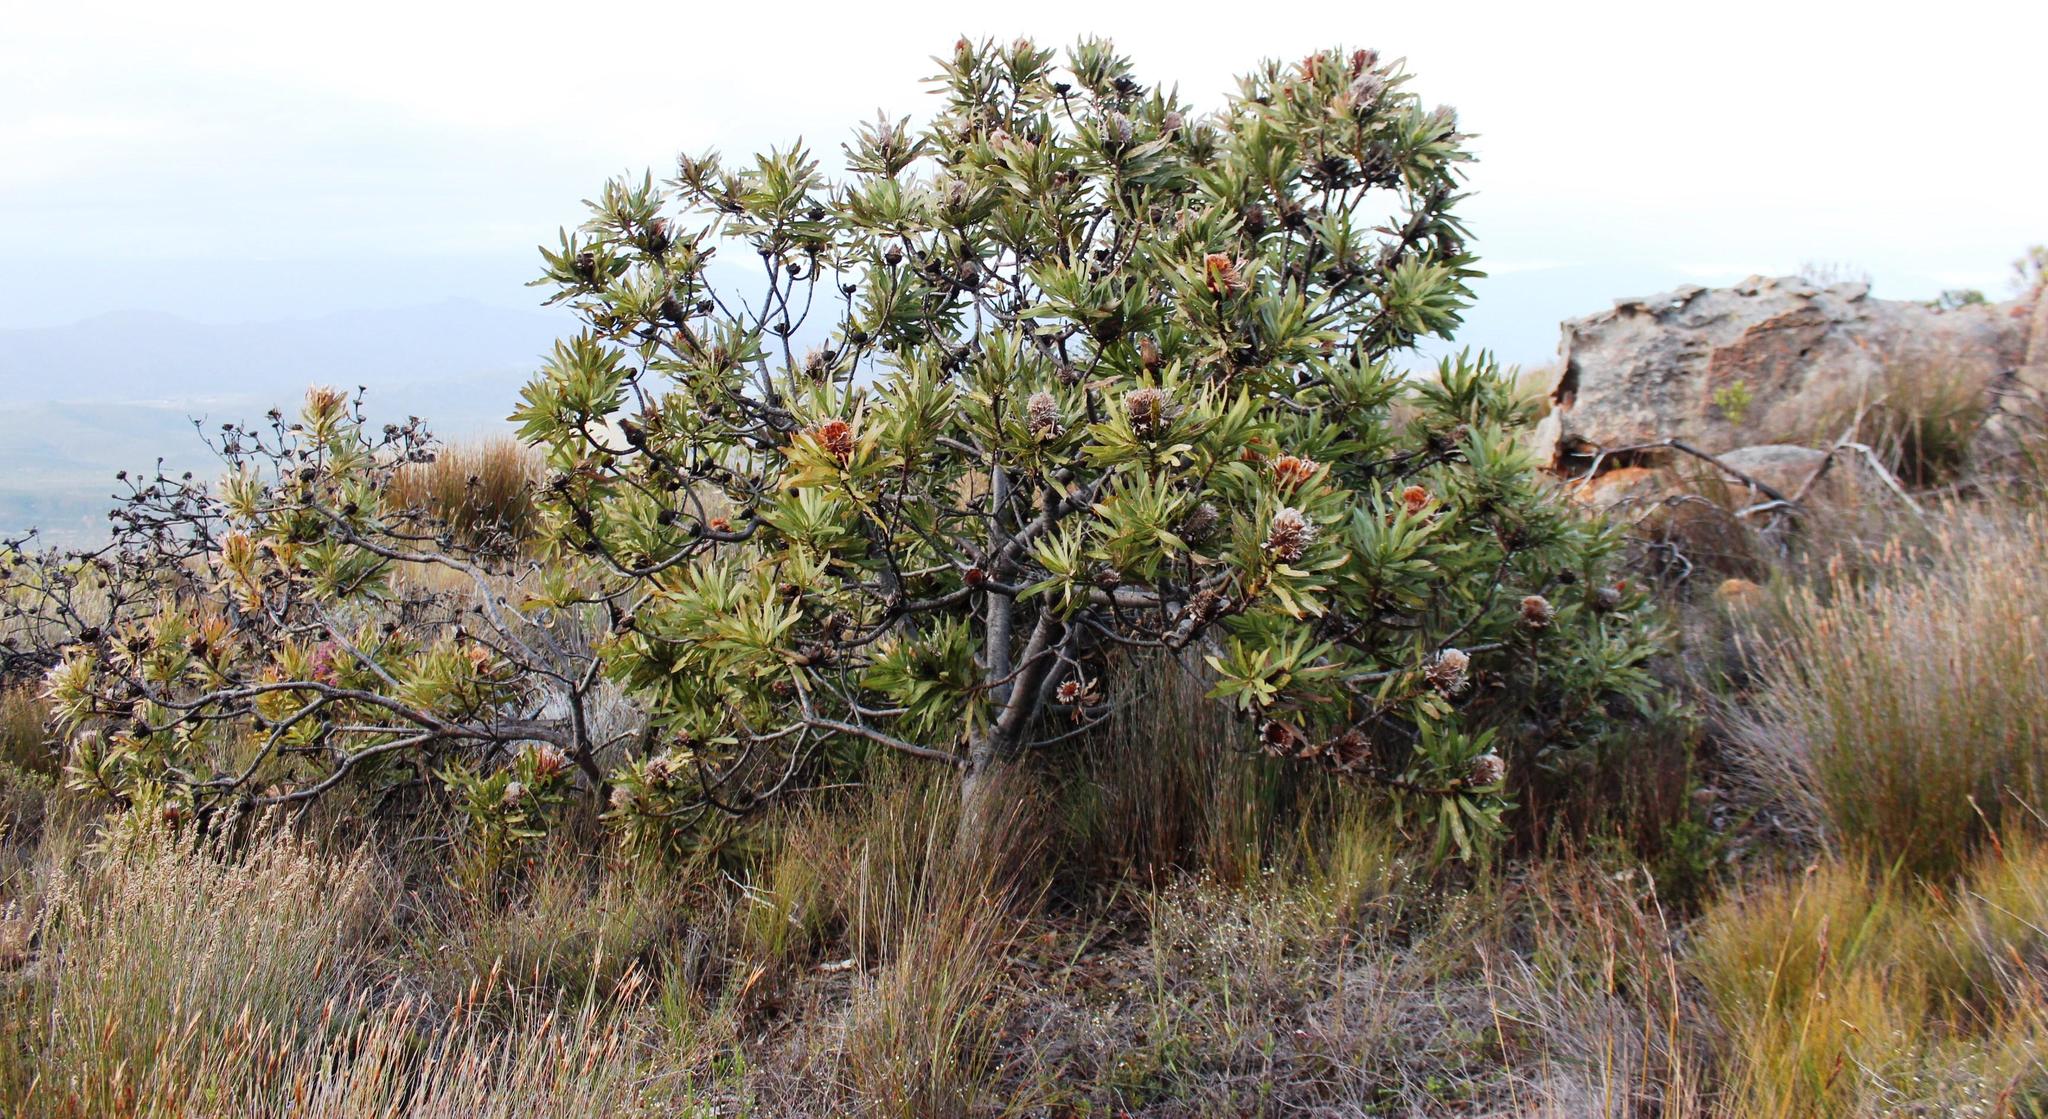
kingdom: Plantae
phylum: Tracheophyta
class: Magnoliopsida
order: Proteales
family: Proteaceae
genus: Protea
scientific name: Protea laurifolia
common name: Grey-leaf sugarbsh
